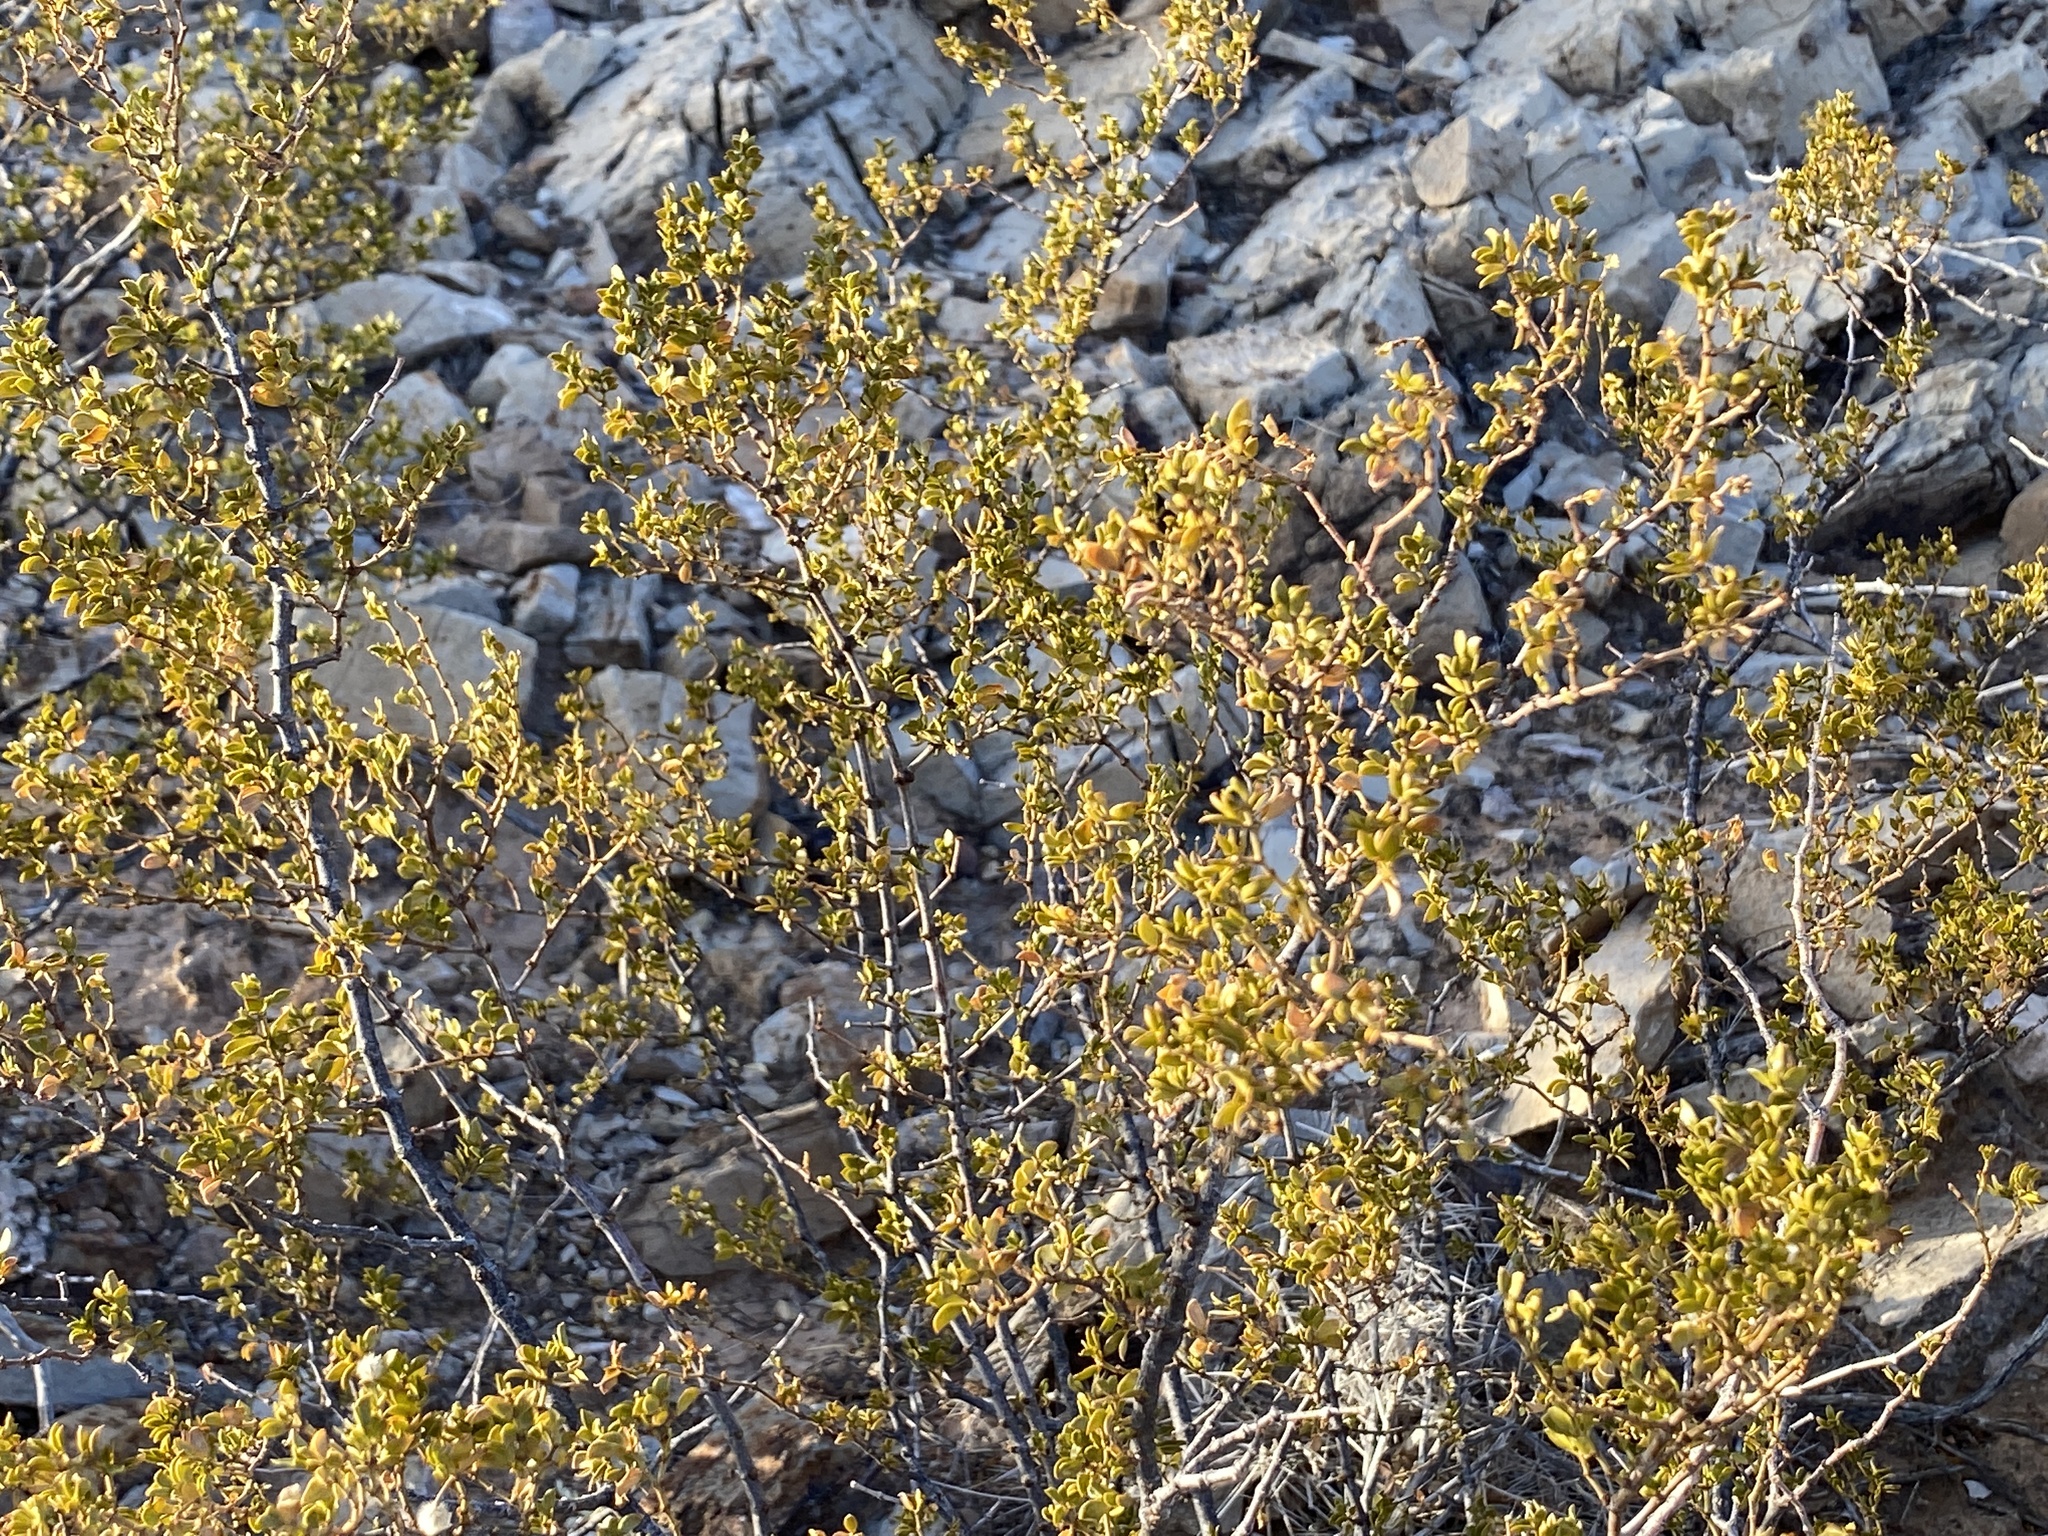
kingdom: Plantae
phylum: Tracheophyta
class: Magnoliopsida
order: Zygophyllales
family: Zygophyllaceae
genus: Larrea
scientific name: Larrea tridentata
